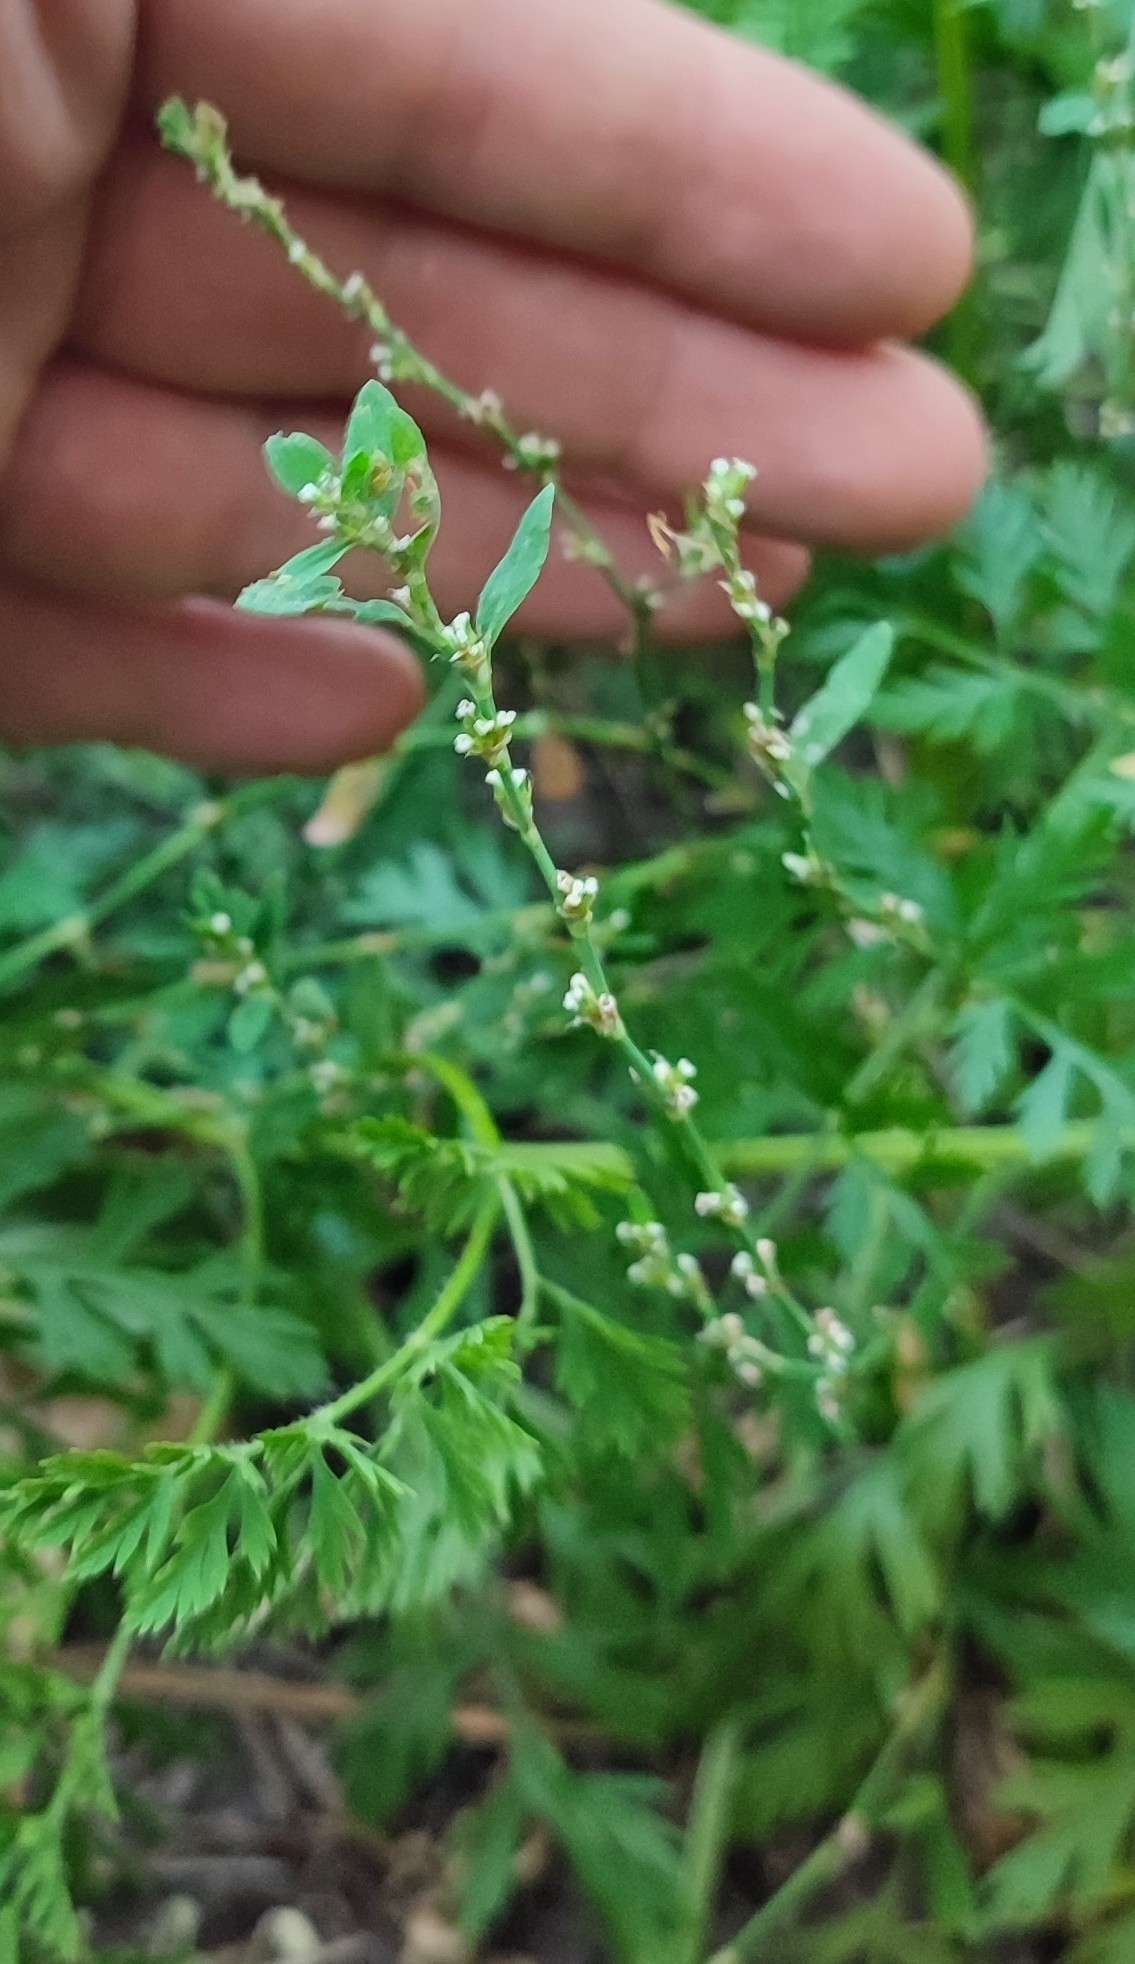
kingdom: Plantae
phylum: Tracheophyta
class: Magnoliopsida
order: Caryophyllales
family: Polygonaceae
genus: Polygonum
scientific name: Polygonum
